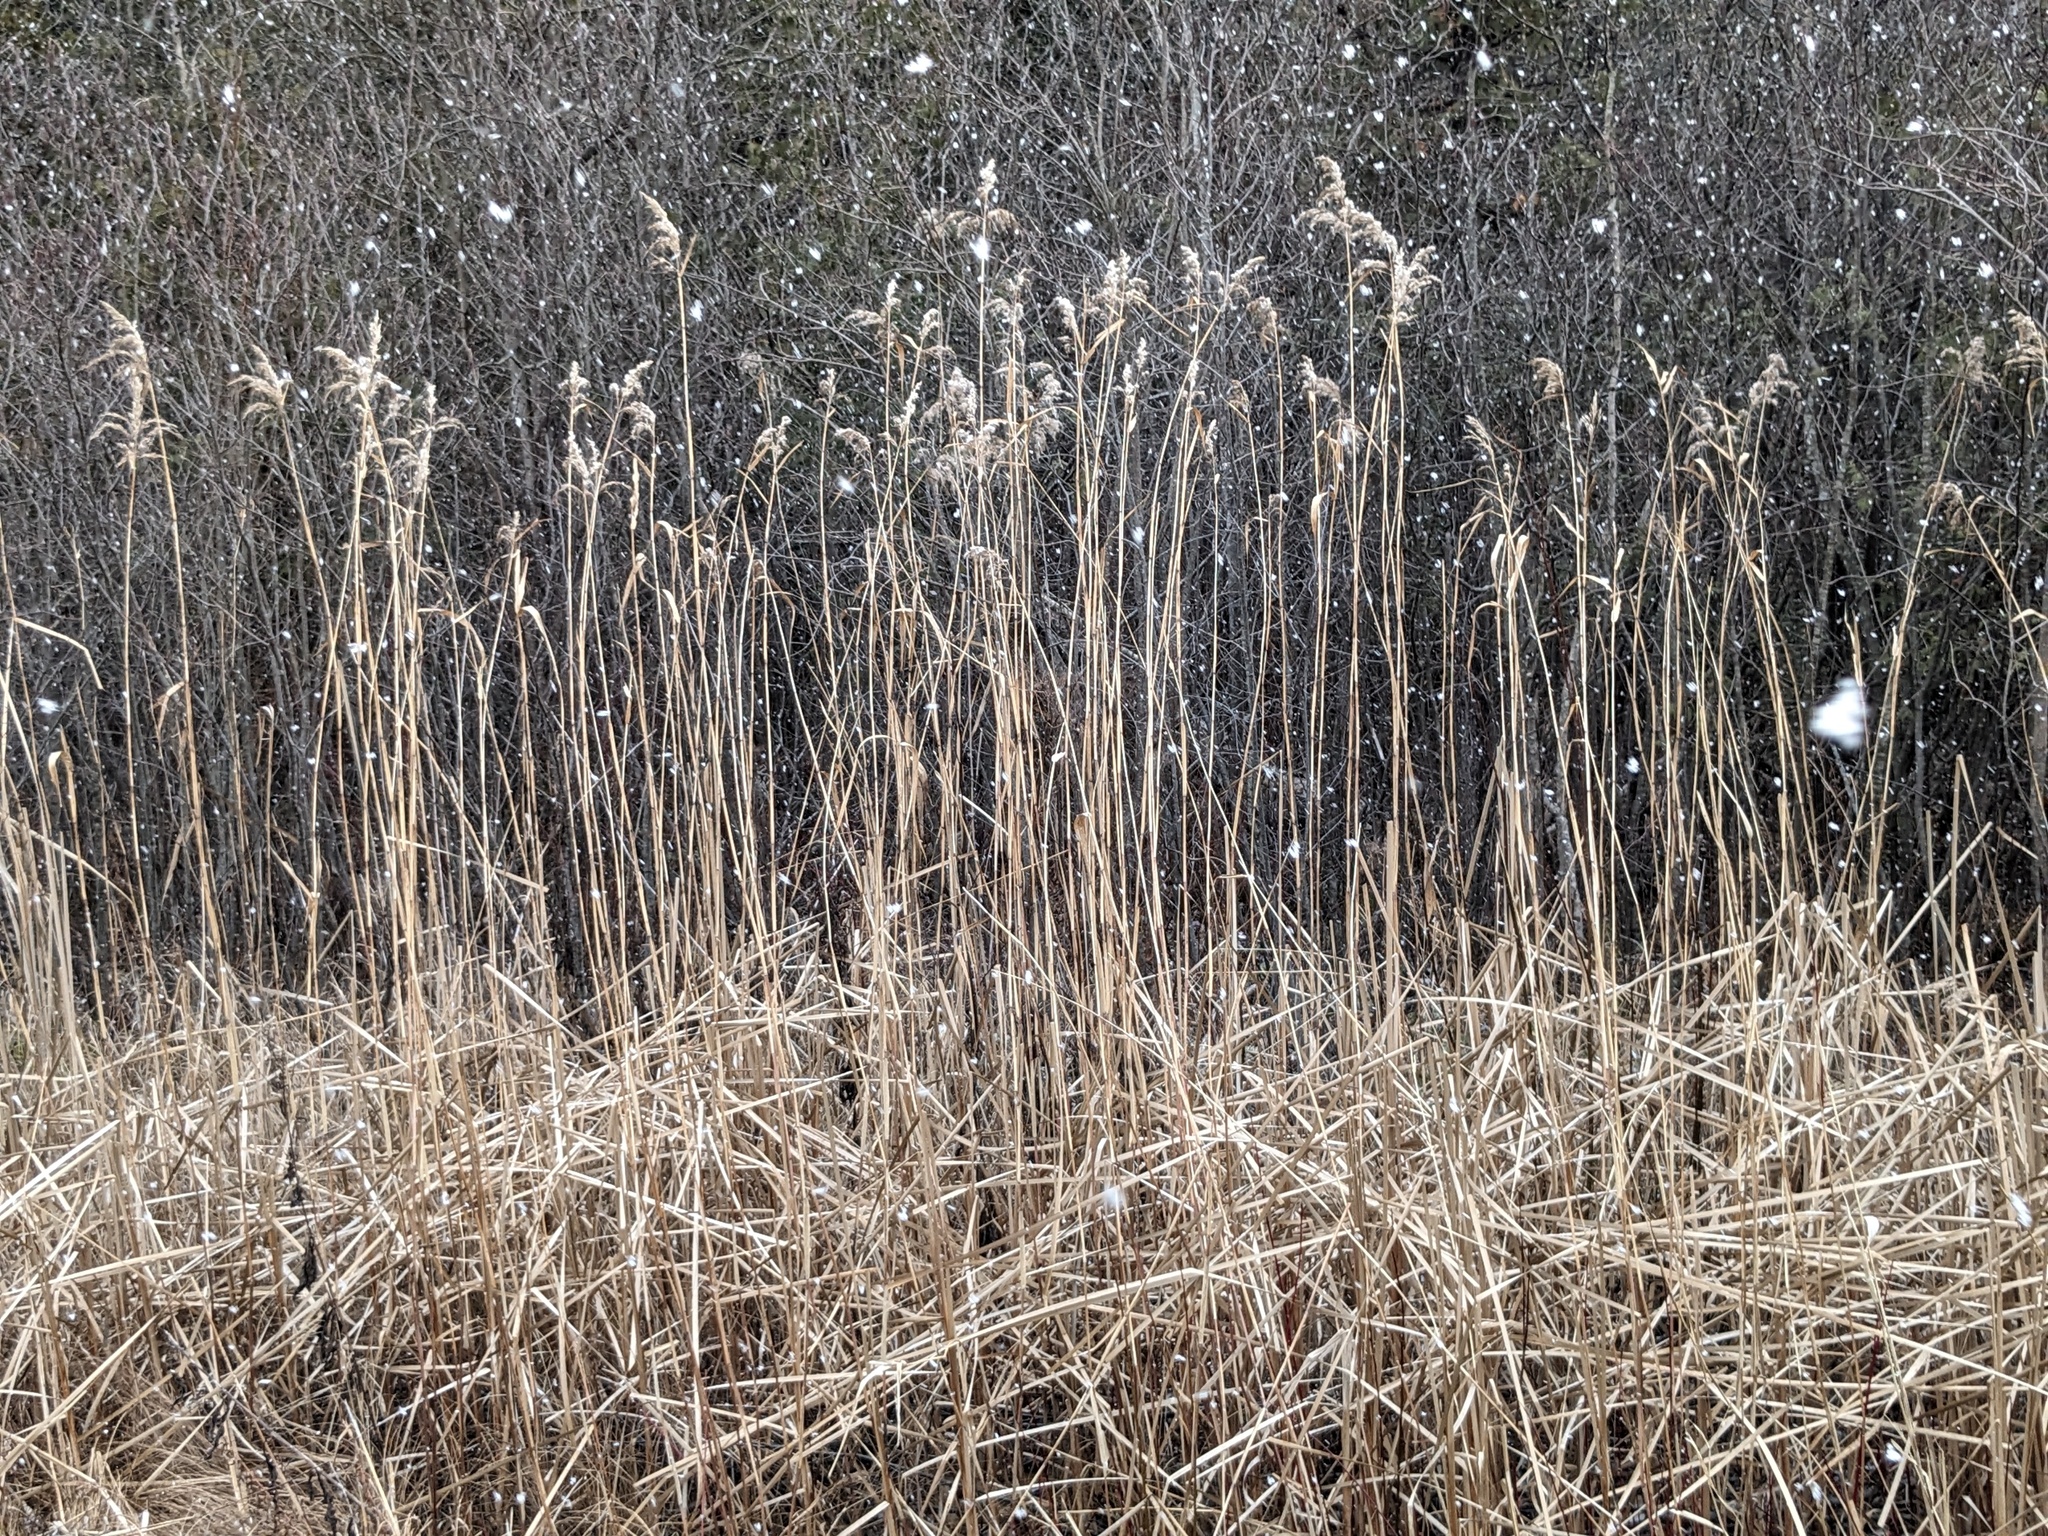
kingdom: Plantae
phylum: Tracheophyta
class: Liliopsida
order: Poales
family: Poaceae
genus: Phragmites
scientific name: Phragmites australis
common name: Common reed
